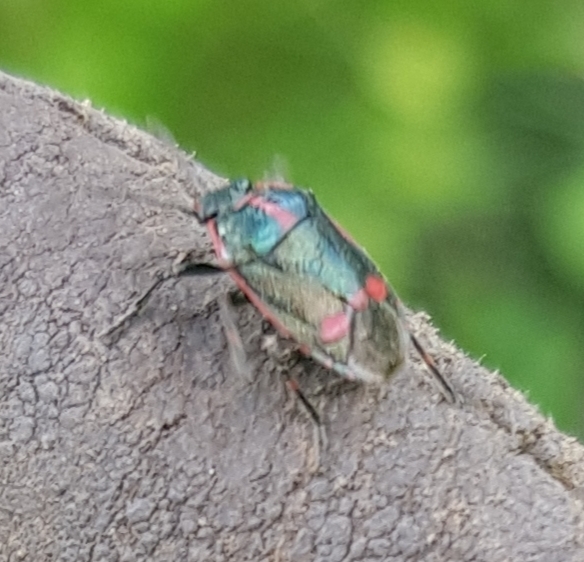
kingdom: Animalia
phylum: Arthropoda
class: Insecta
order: Hemiptera
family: Pentatomidae
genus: Eurydema
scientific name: Eurydema oleracea
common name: Cabbage bug
